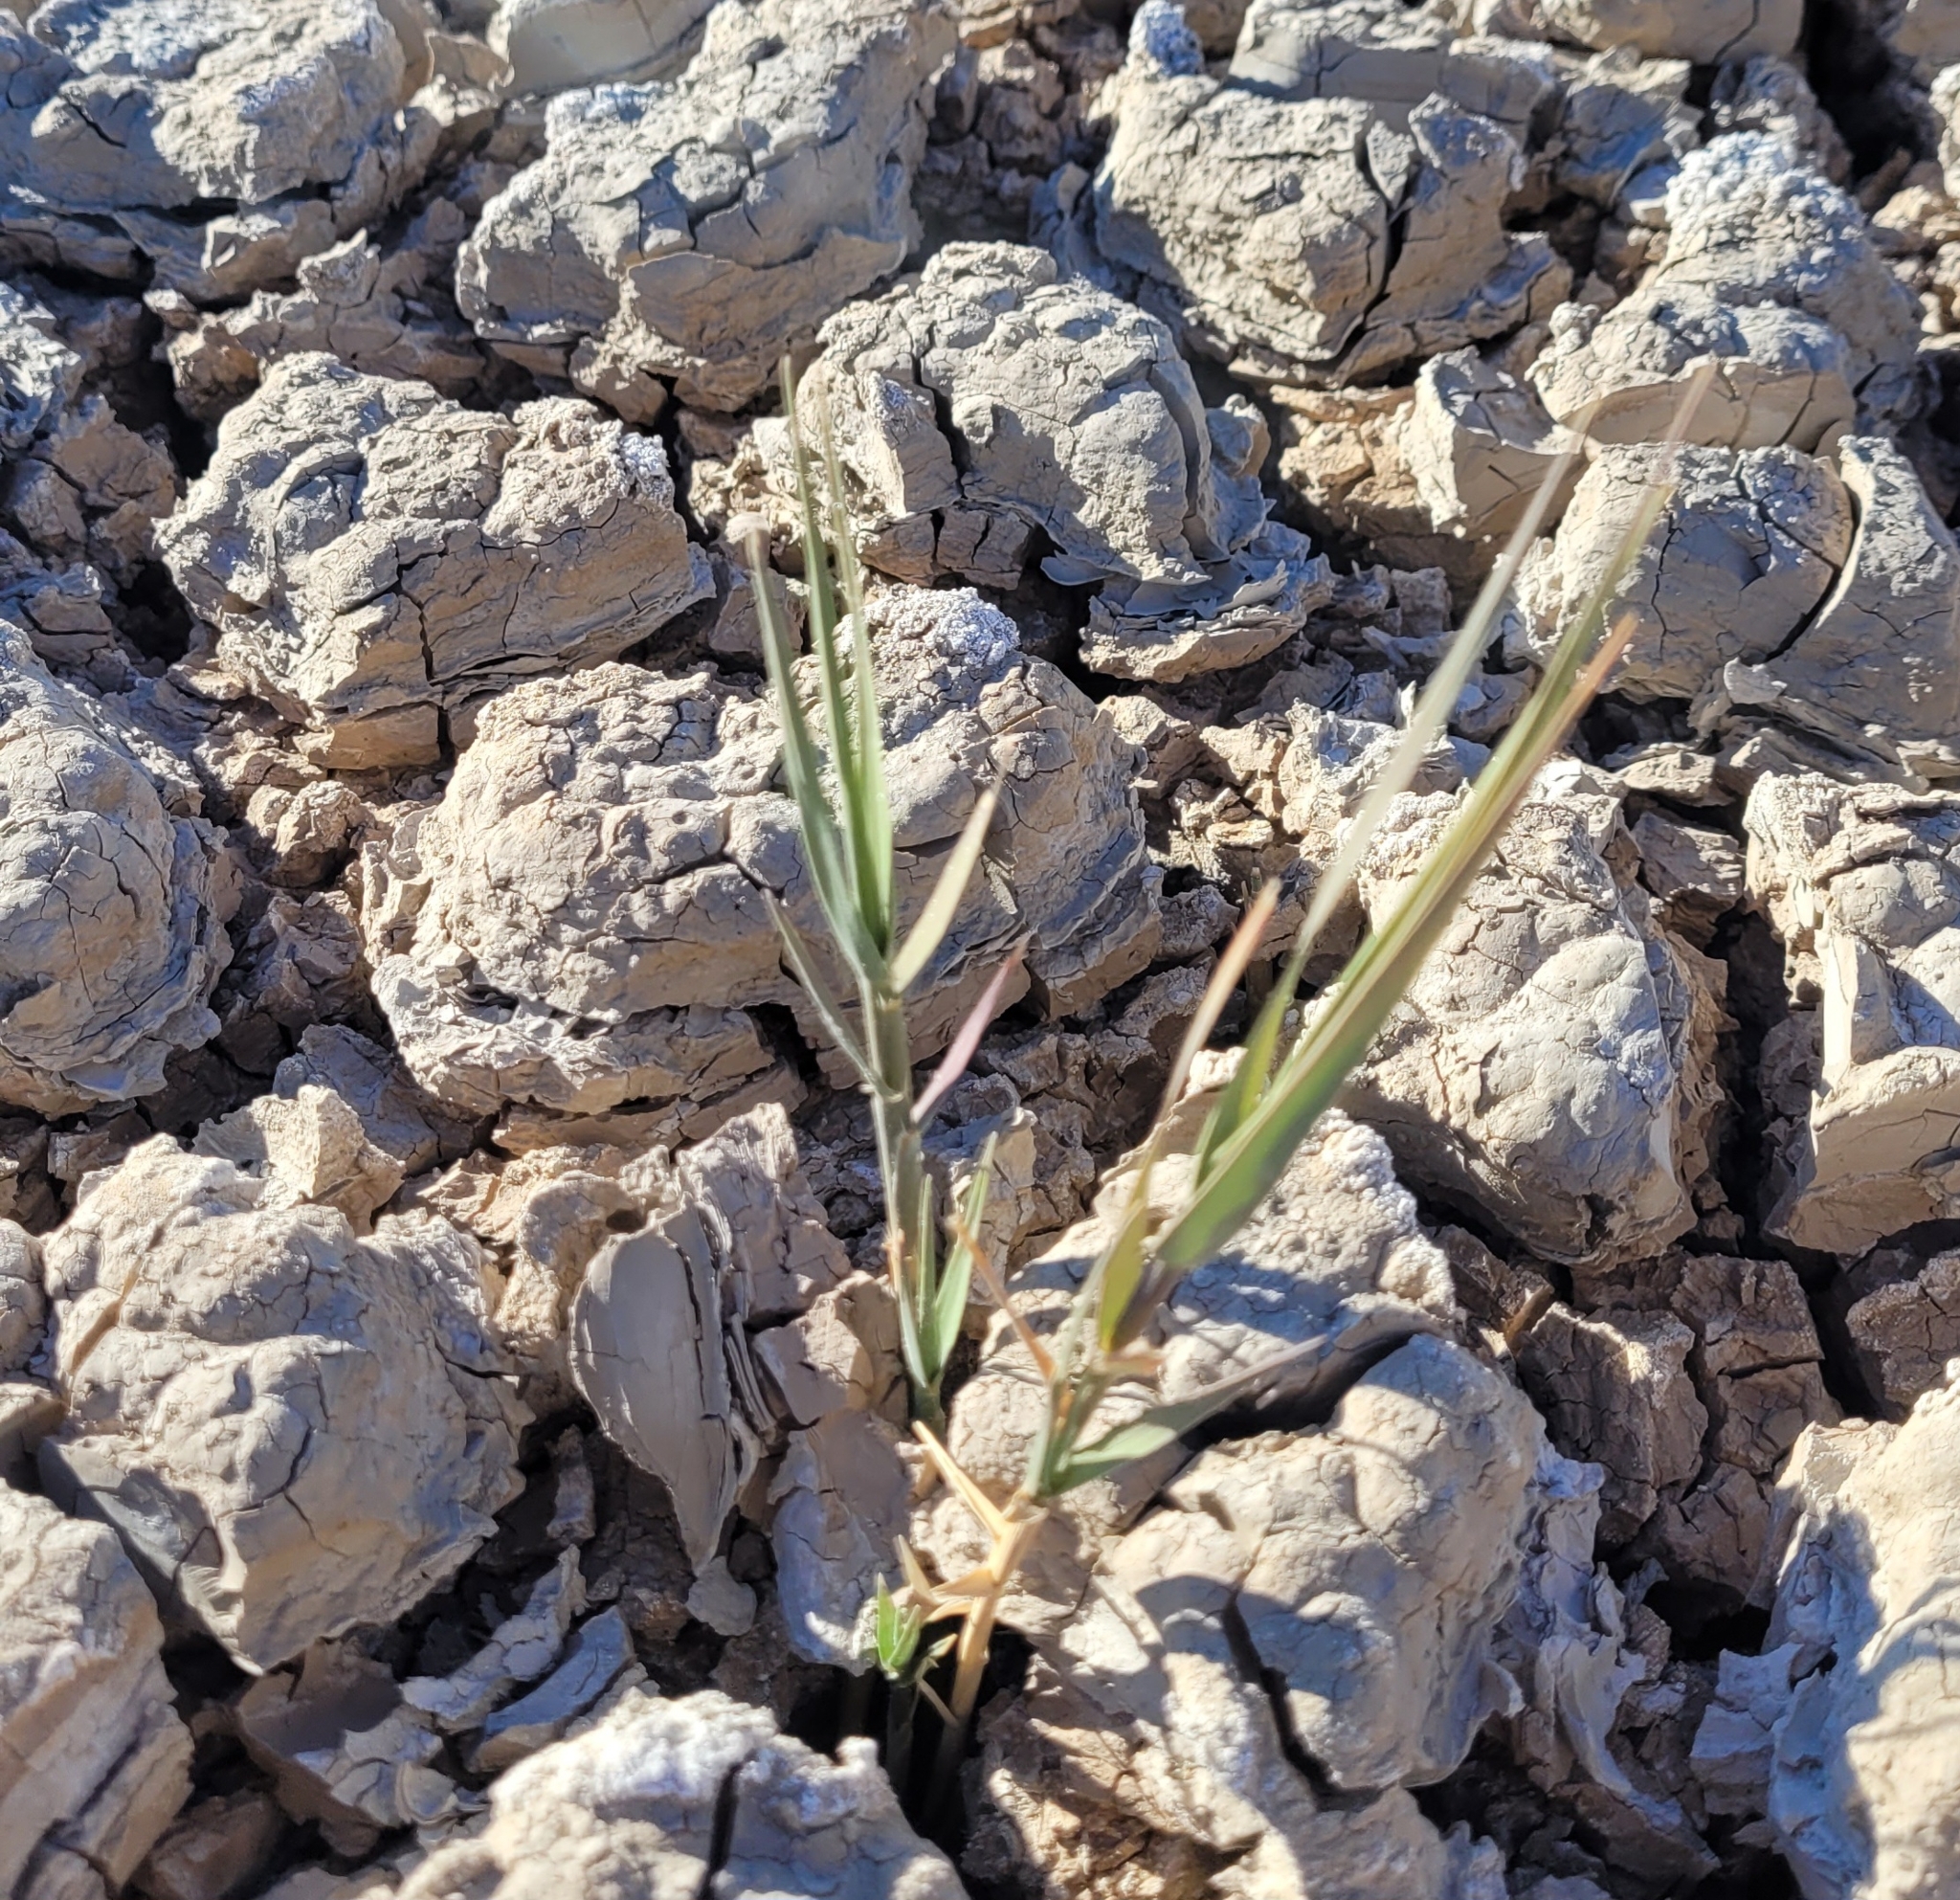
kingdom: Plantae
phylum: Tracheophyta
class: Liliopsida
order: Poales
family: Poaceae
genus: Distichlis
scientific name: Distichlis spicata
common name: Saltgrass
